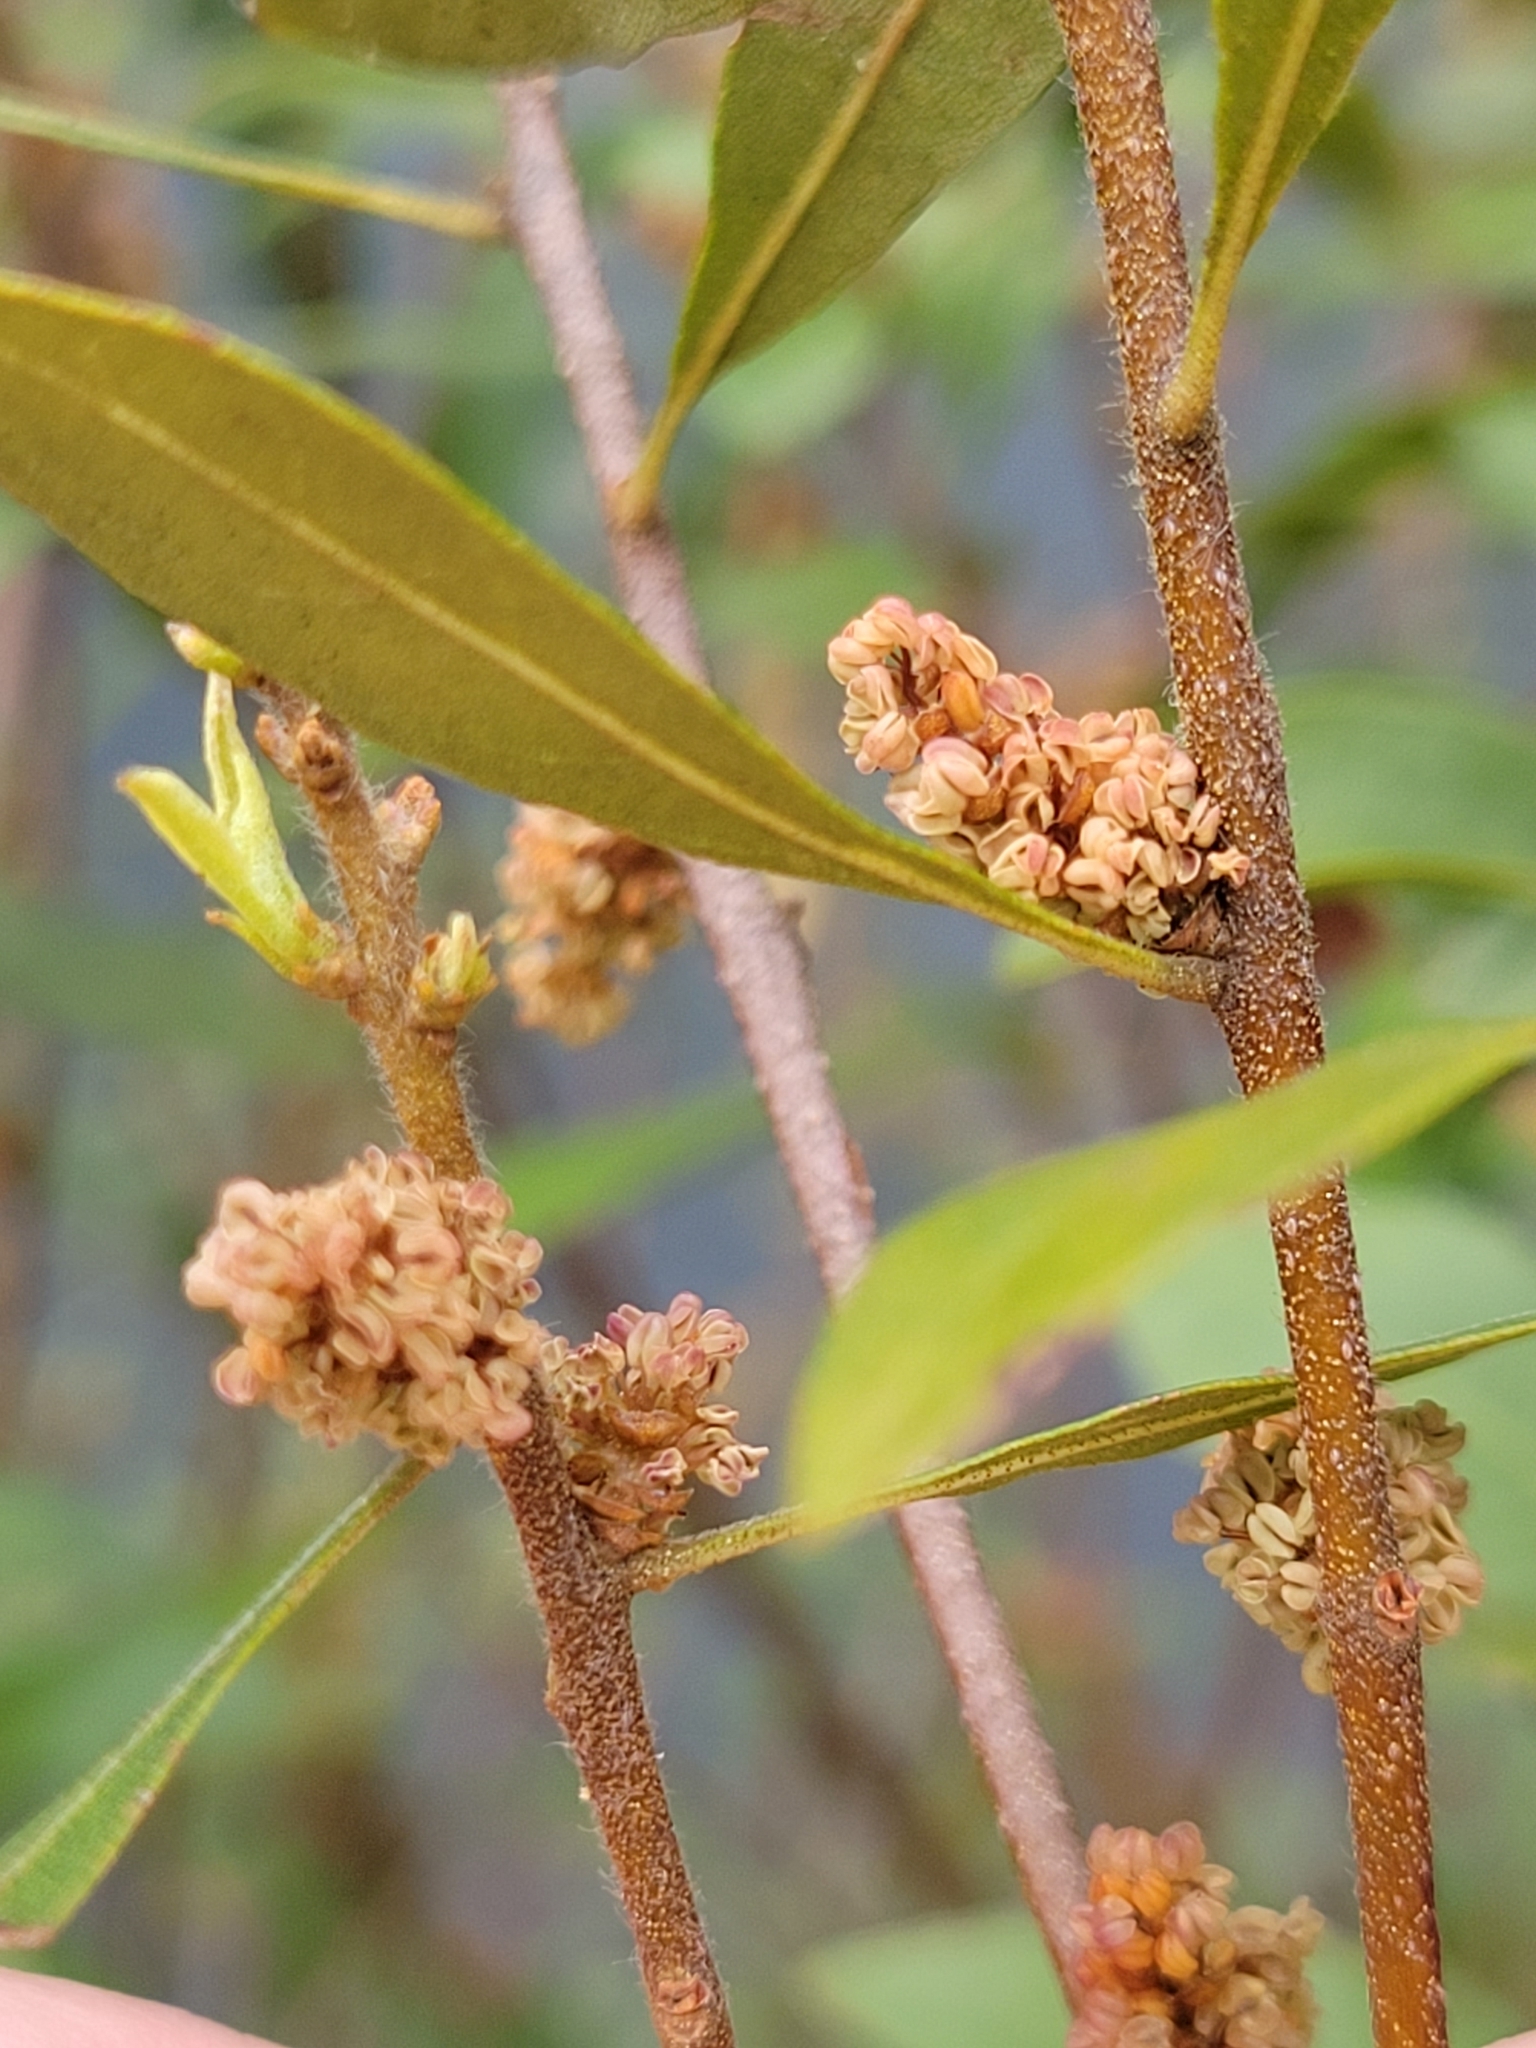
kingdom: Plantae
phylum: Tracheophyta
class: Magnoliopsida
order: Fagales
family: Myricaceae
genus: Morella
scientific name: Morella cerifera
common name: Wax myrtle
